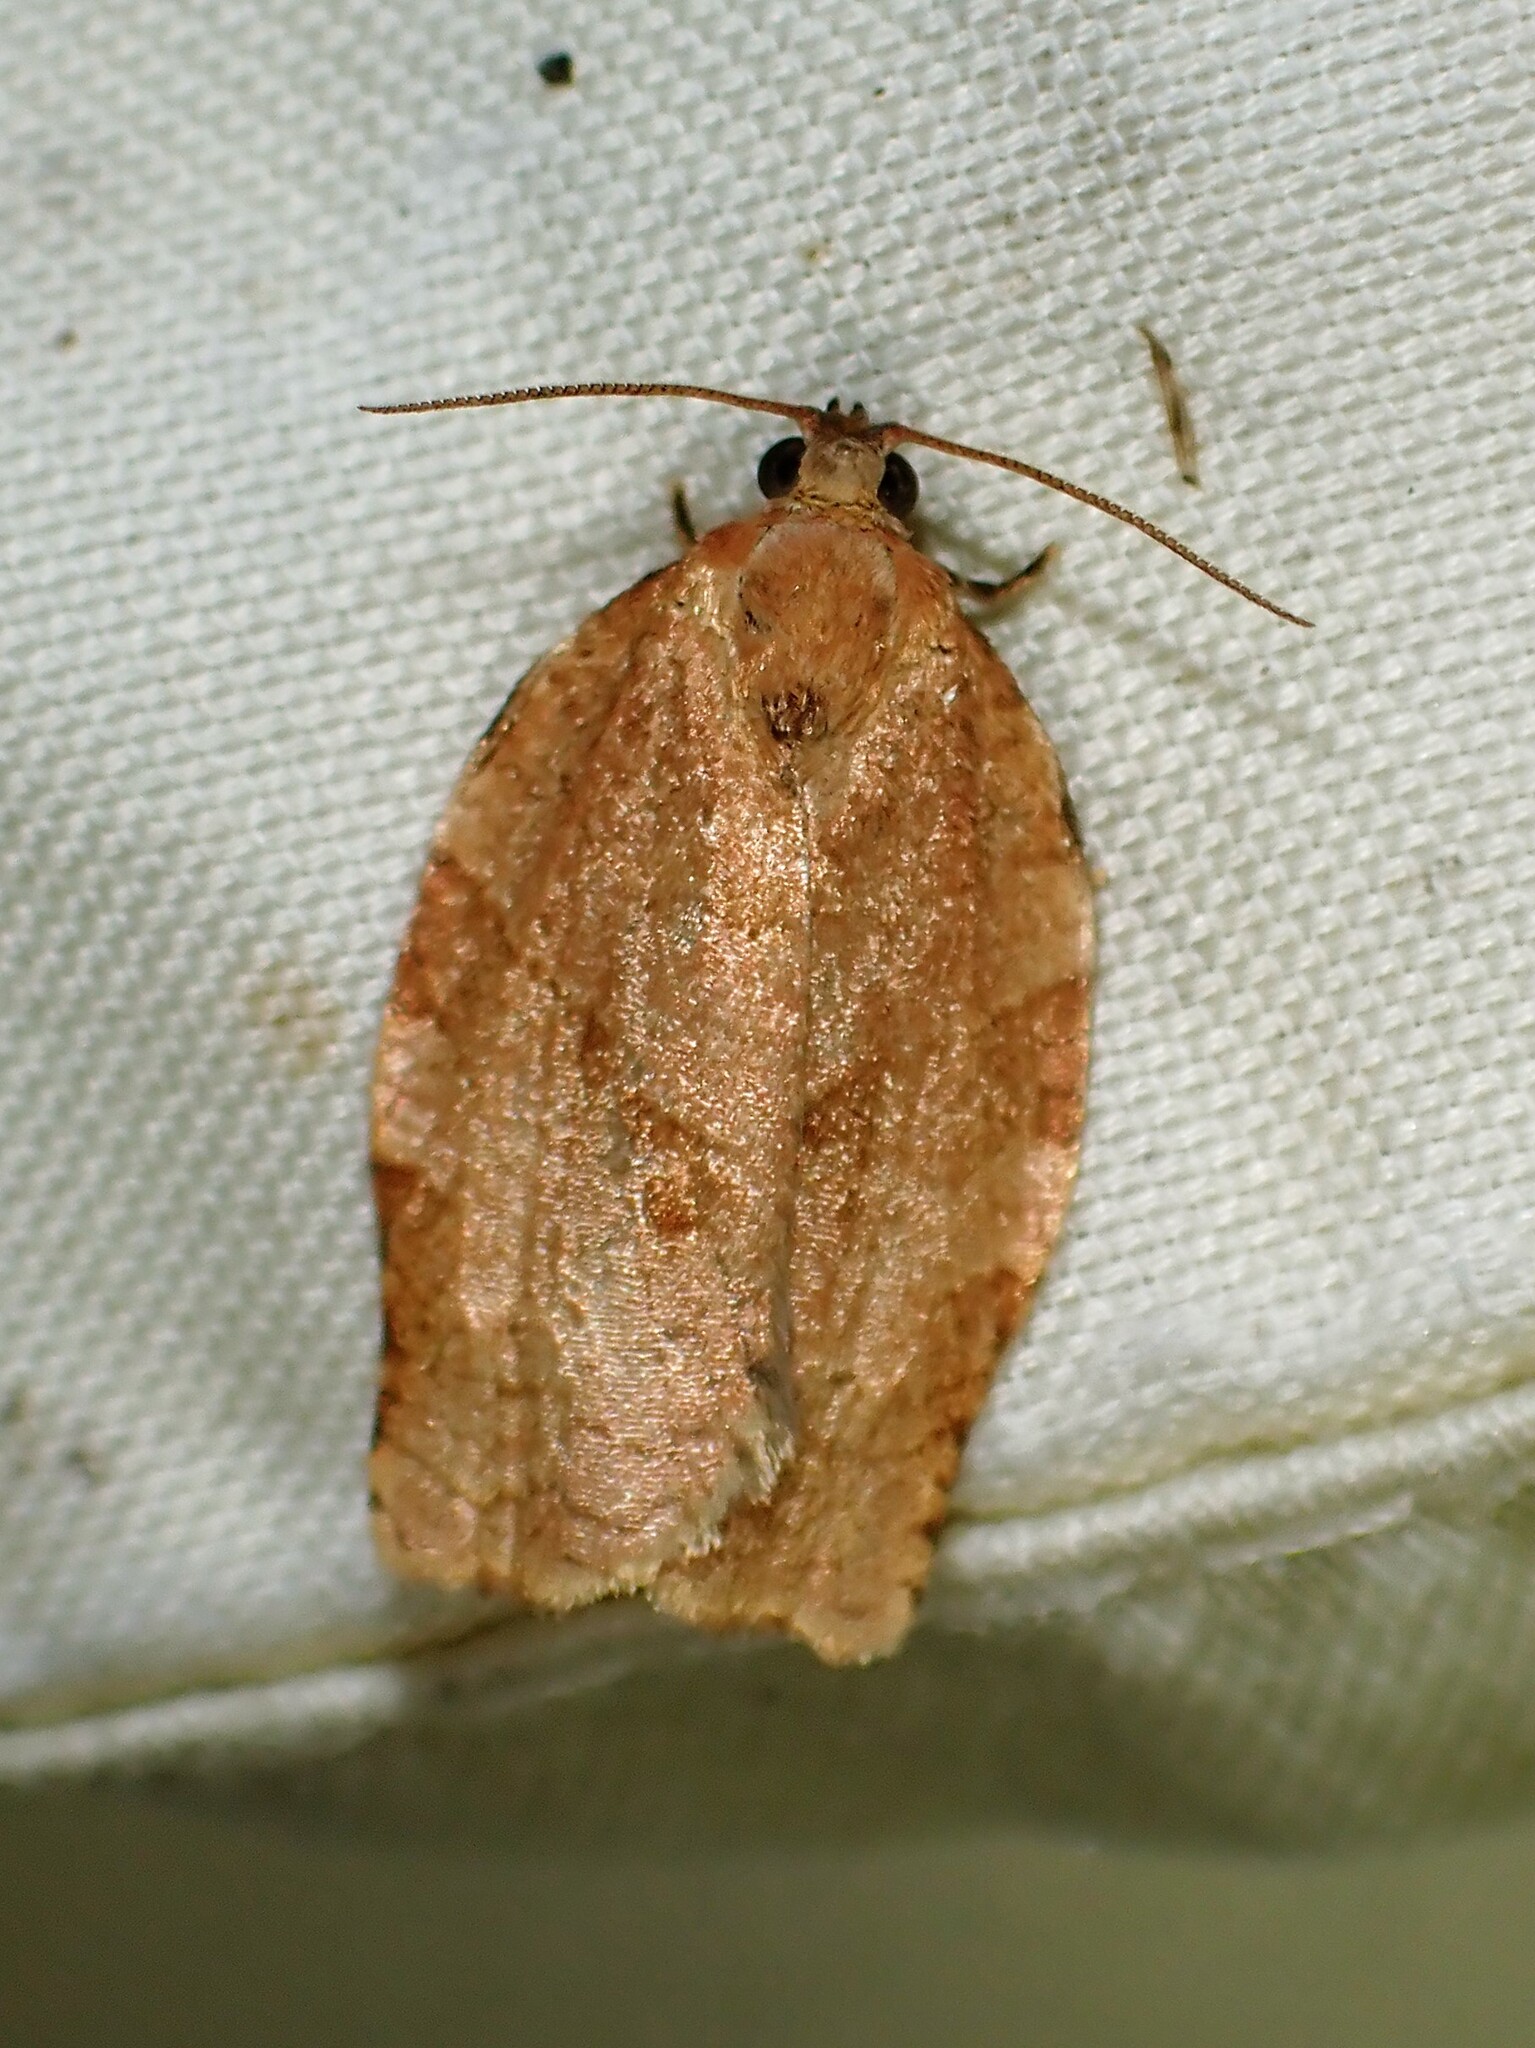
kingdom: Animalia
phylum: Arthropoda
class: Insecta
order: Lepidoptera
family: Tortricidae
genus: Choristoneura
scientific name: Choristoneura rosaceana
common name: Oblique-banded leafroller moth
